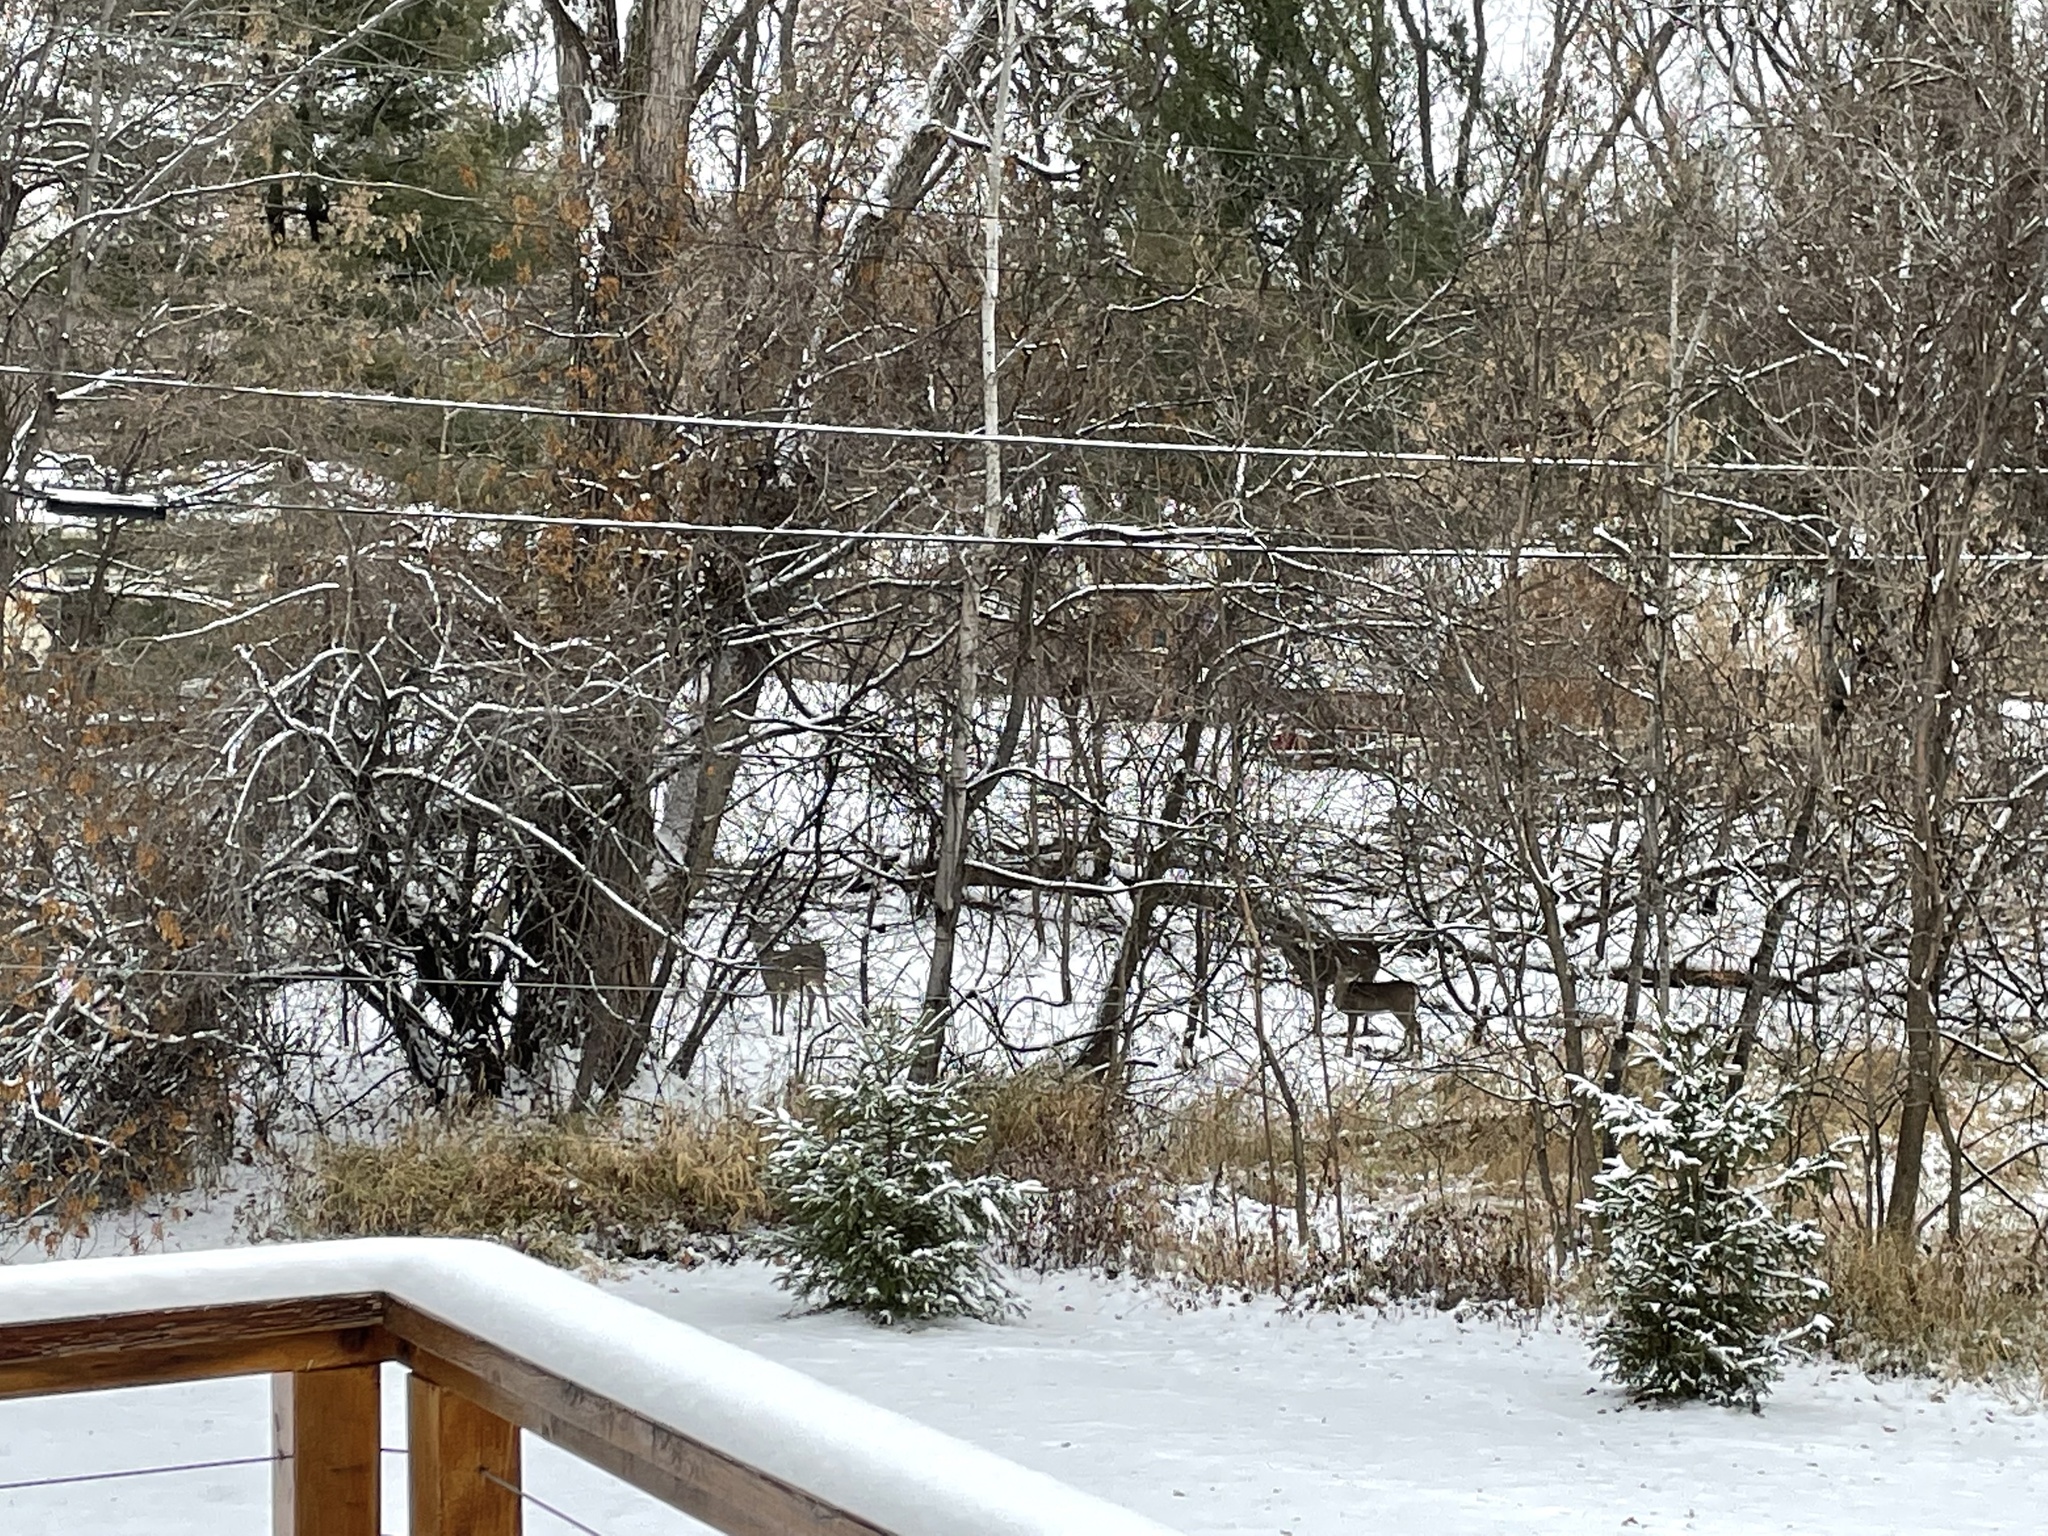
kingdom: Animalia
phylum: Chordata
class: Mammalia
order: Artiodactyla
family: Cervidae
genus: Odocoileus
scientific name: Odocoileus virginianus
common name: White-tailed deer
